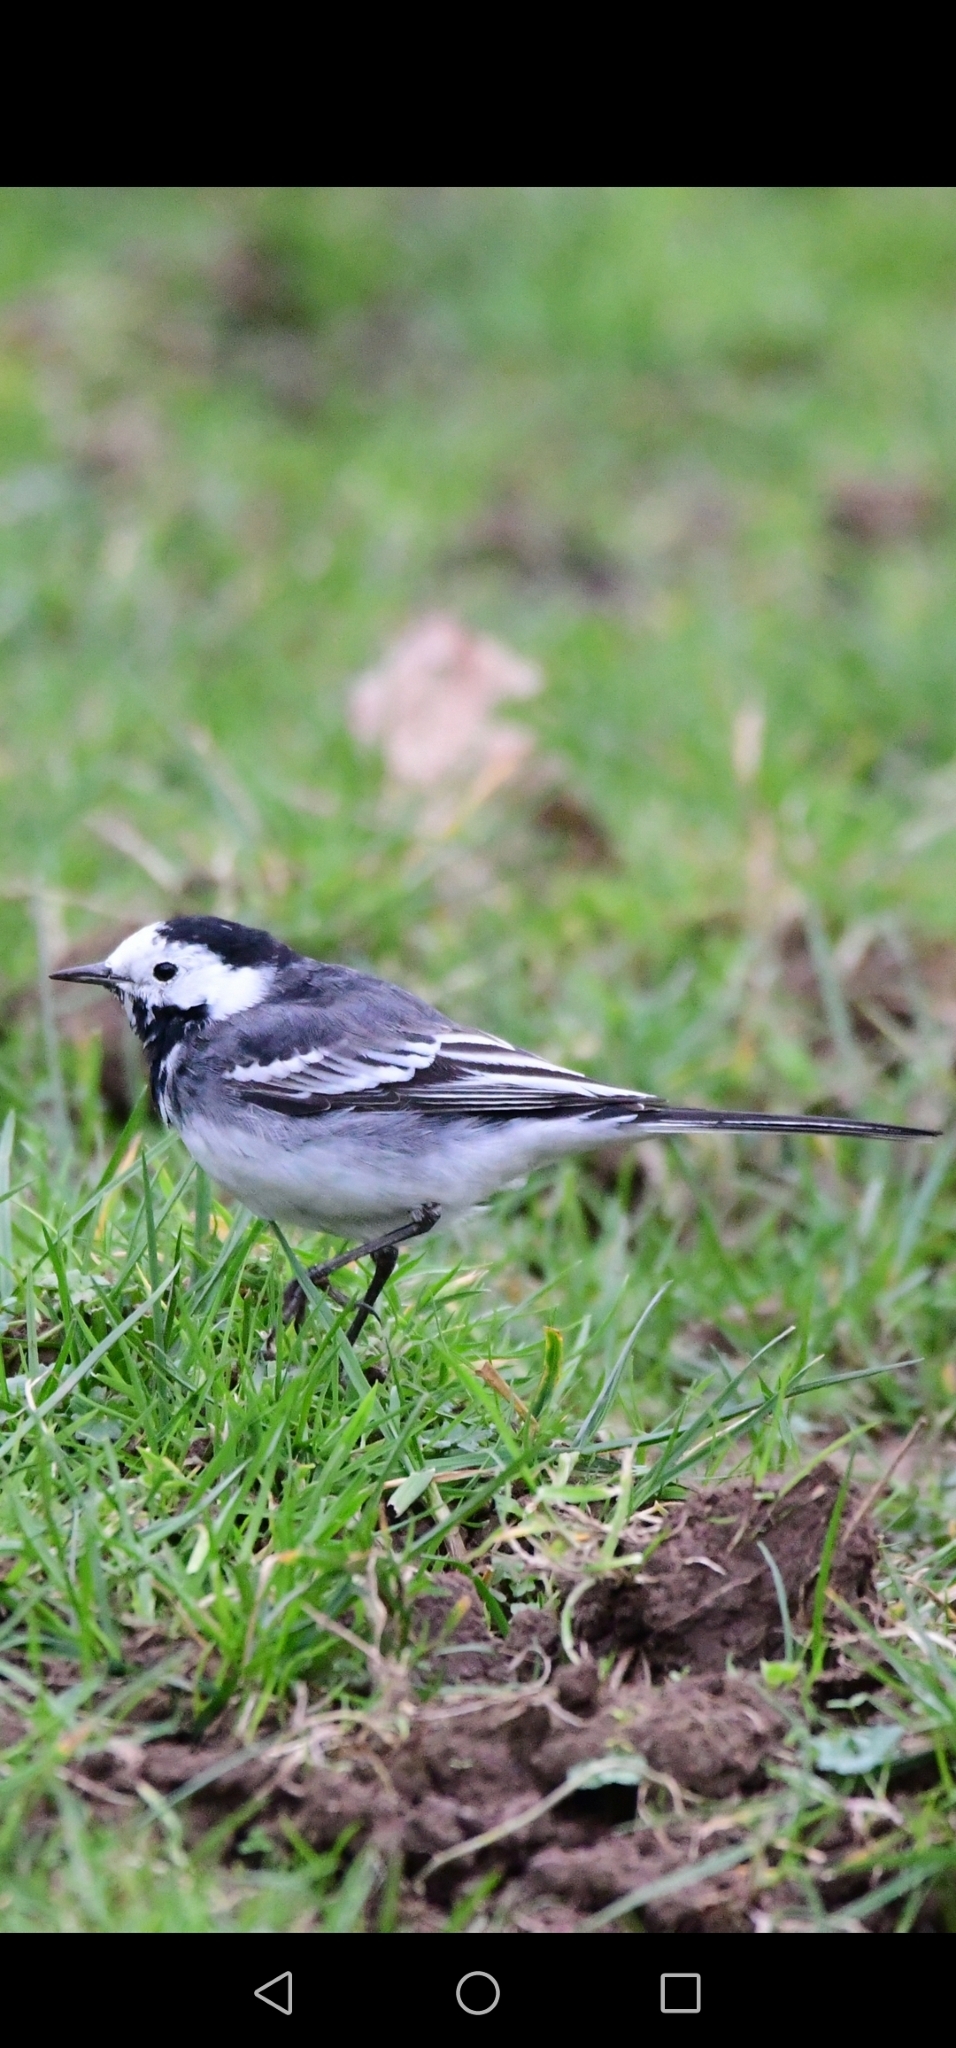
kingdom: Animalia
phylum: Chordata
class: Aves
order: Passeriformes
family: Motacillidae
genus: Motacilla
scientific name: Motacilla alba
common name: White wagtail
